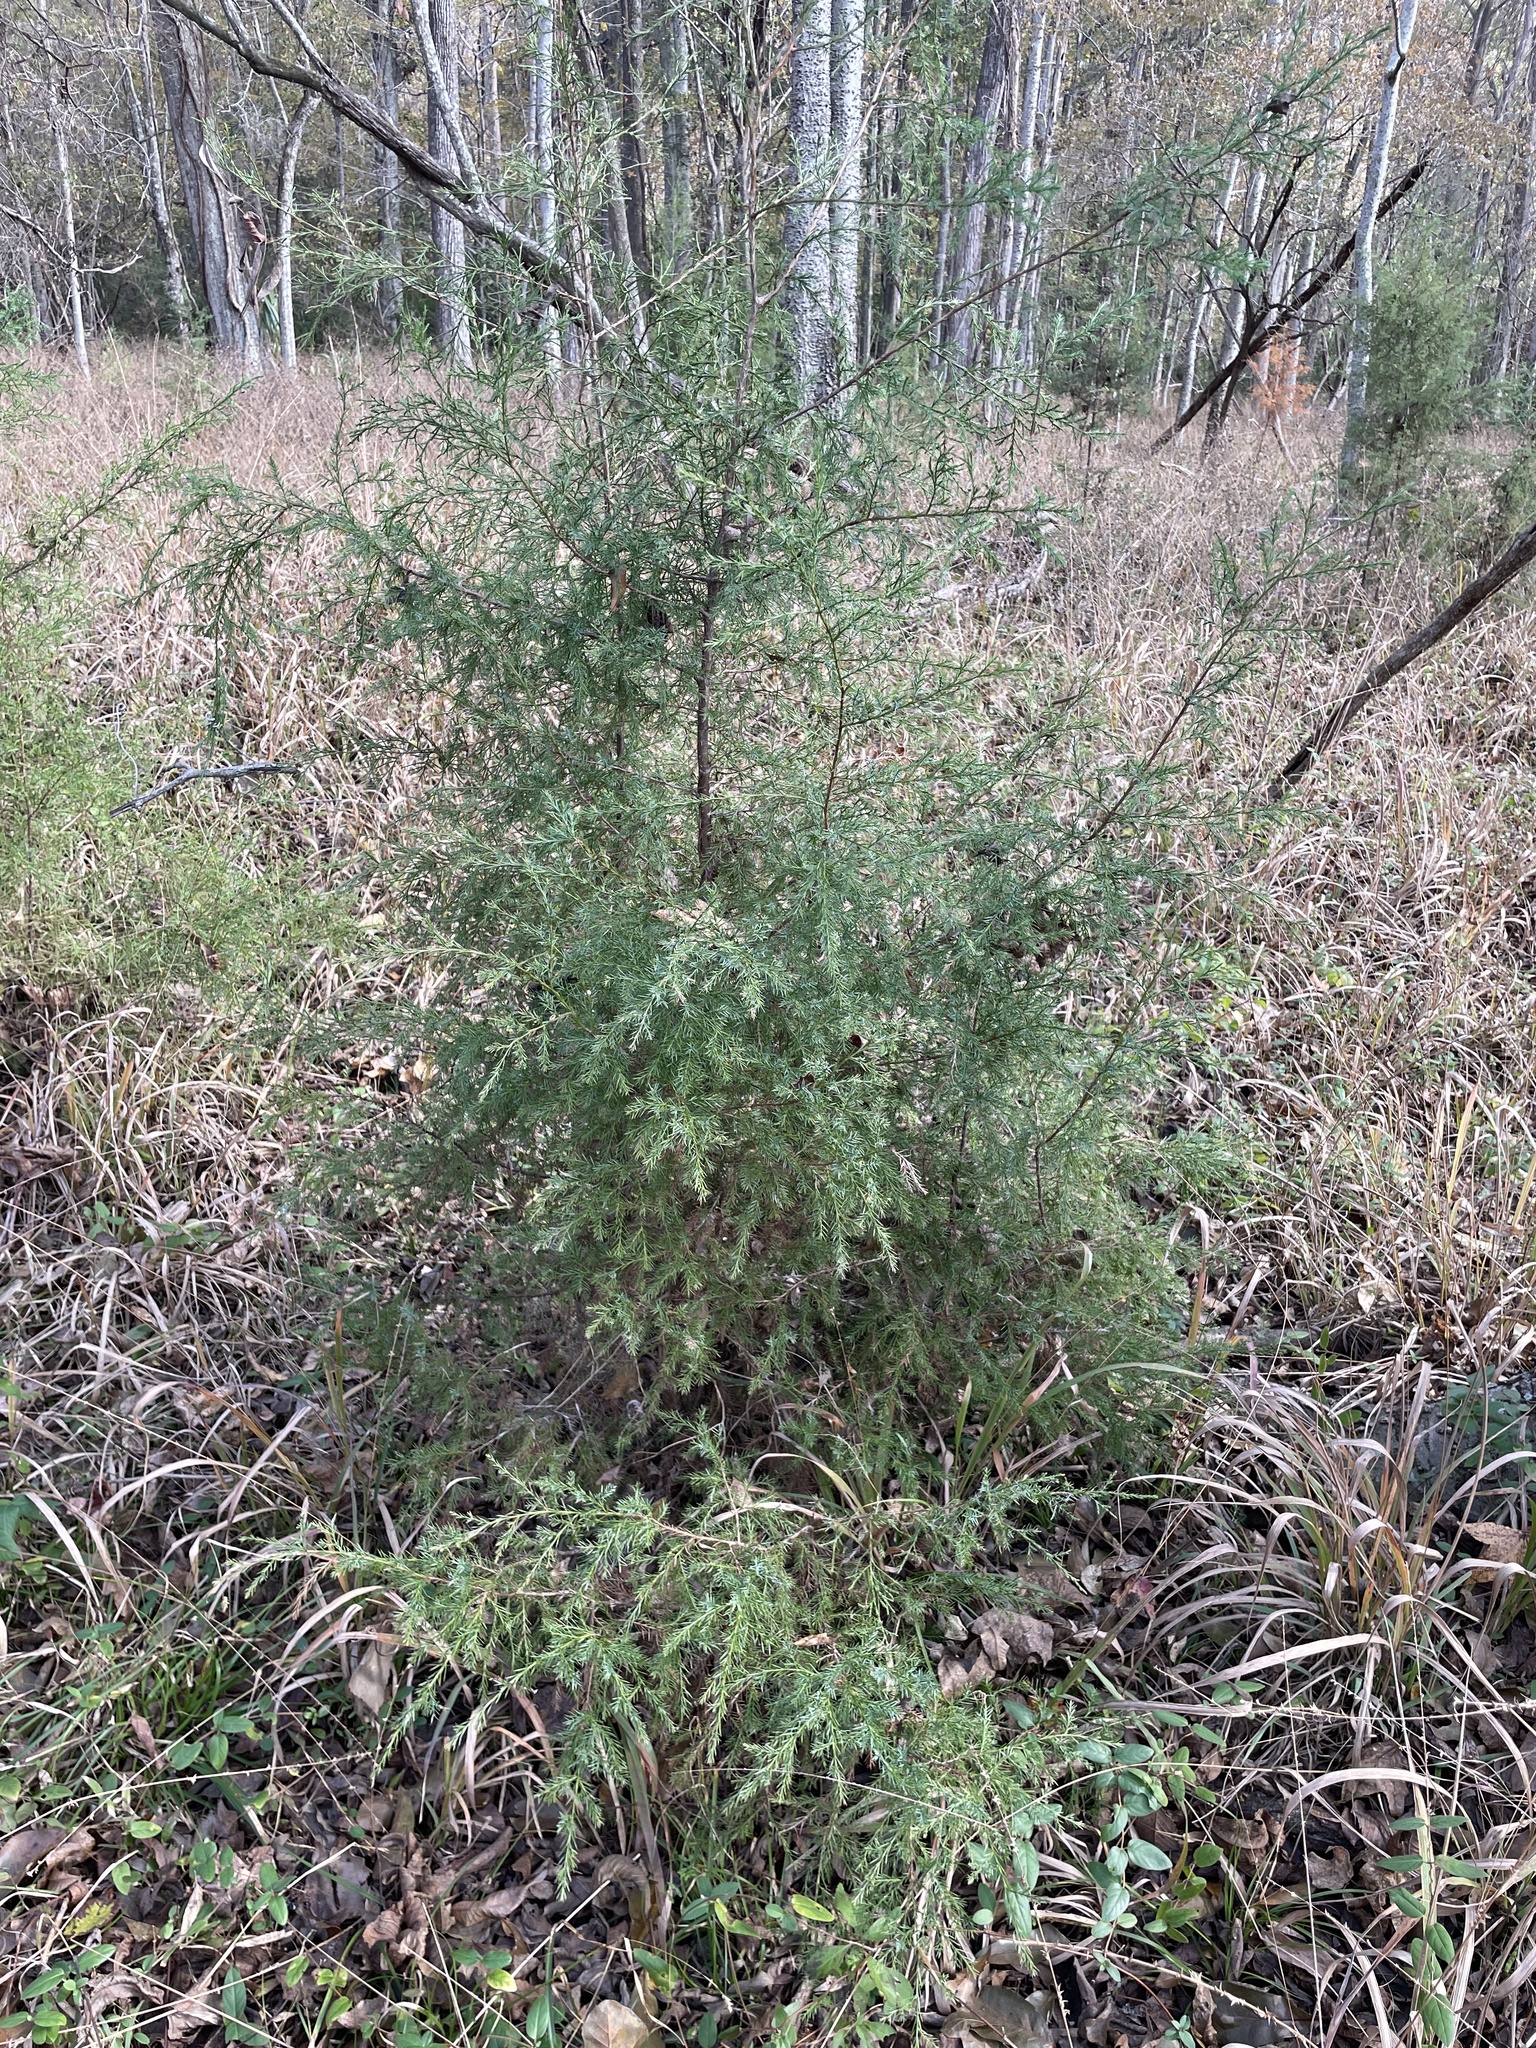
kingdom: Plantae
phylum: Tracheophyta
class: Pinopsida
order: Pinales
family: Cupressaceae
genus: Juniperus
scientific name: Juniperus virginiana
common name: Red juniper
